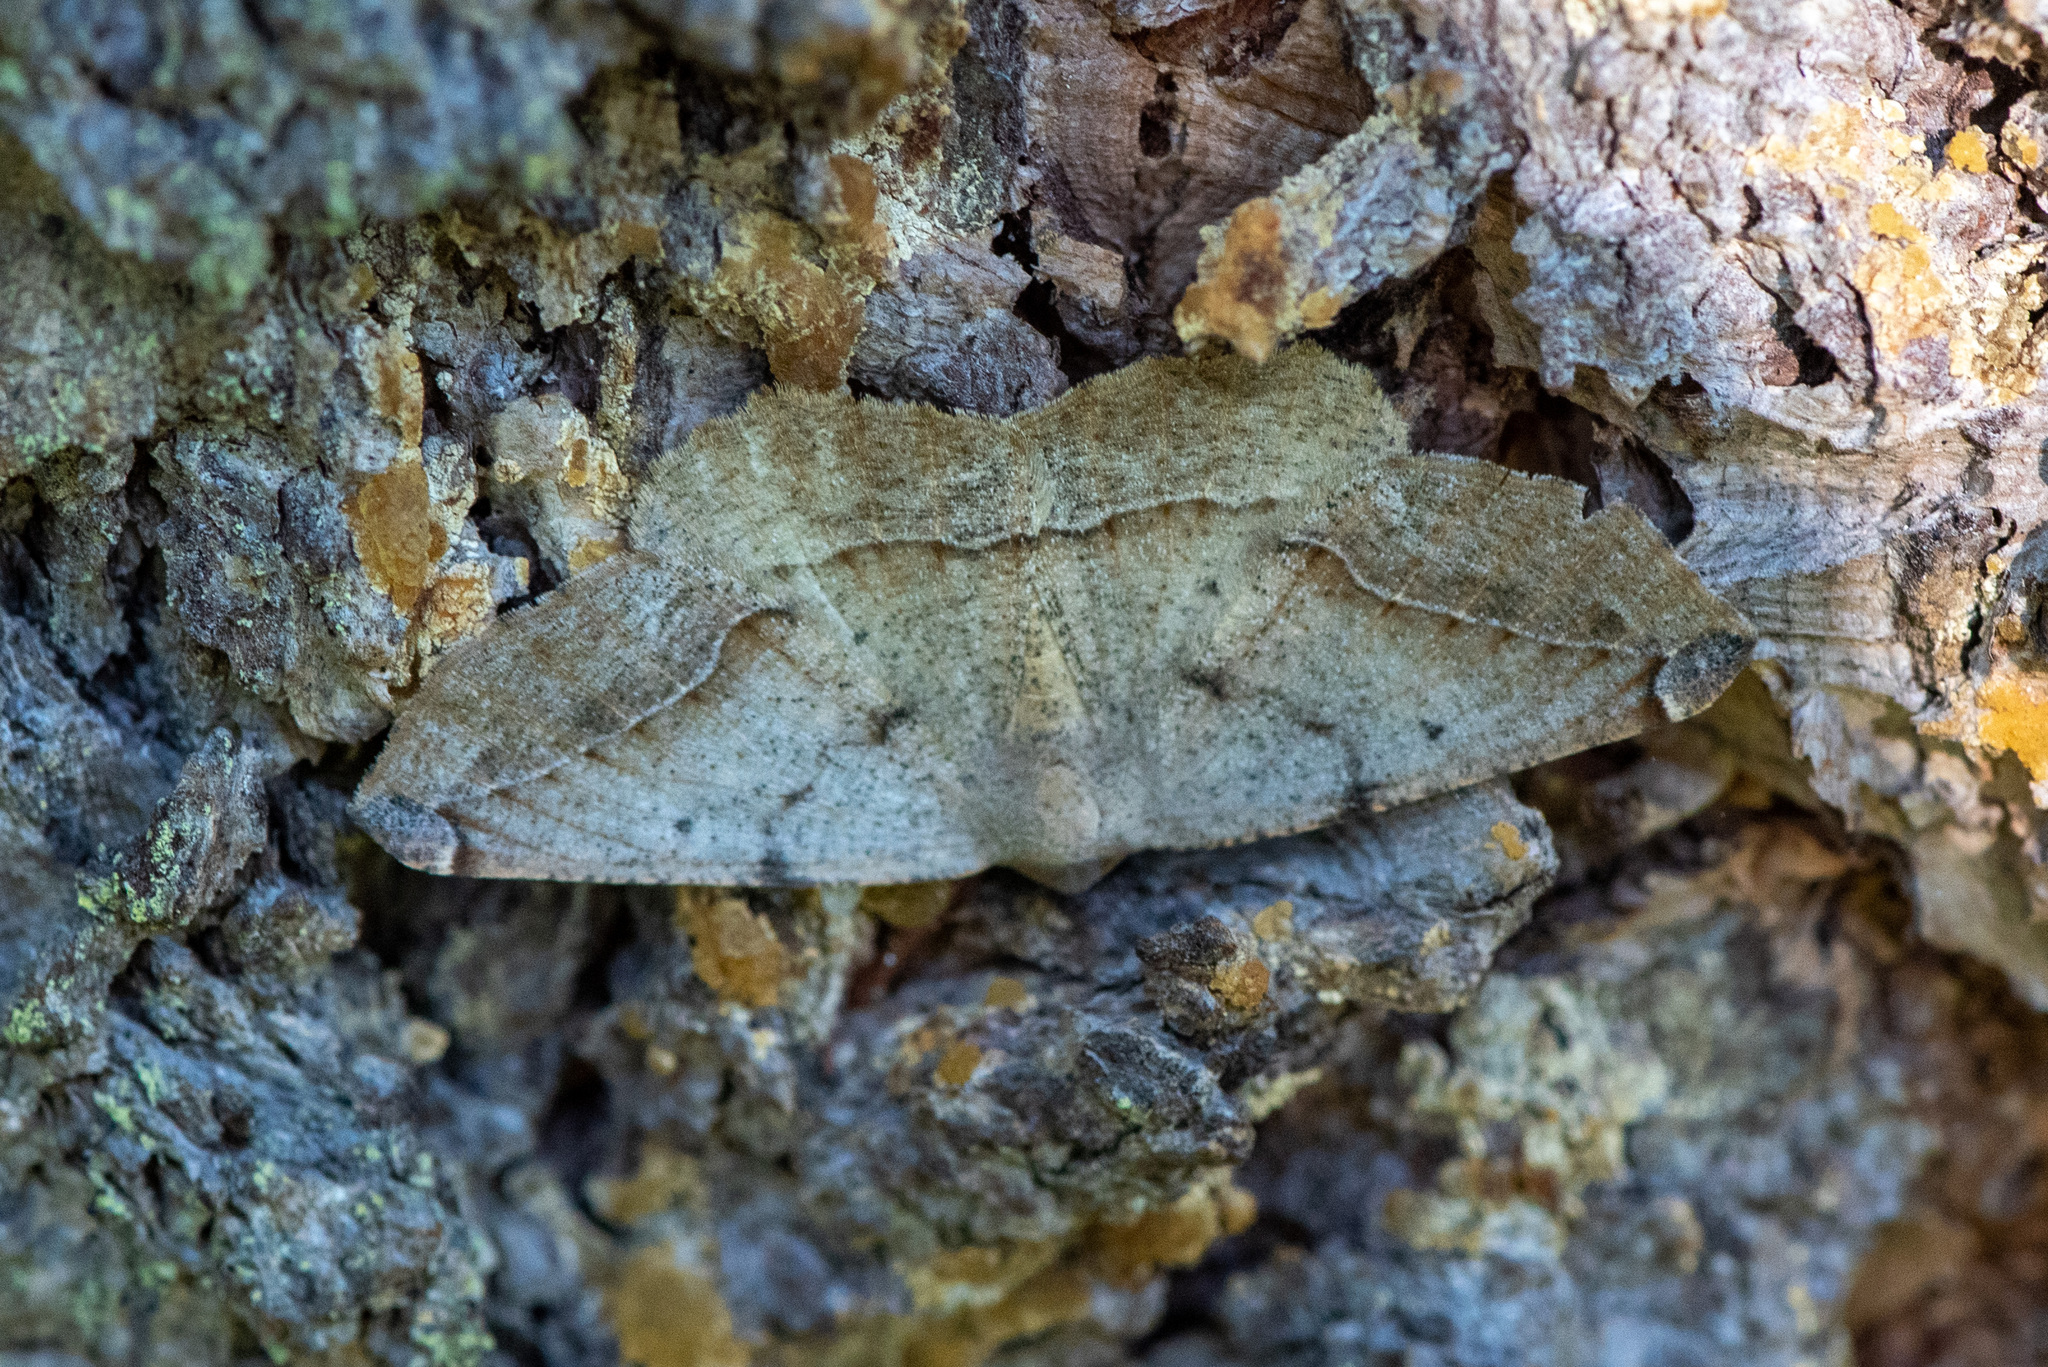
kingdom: Animalia
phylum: Arthropoda
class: Insecta
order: Lepidoptera
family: Geometridae
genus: Prochoerodes
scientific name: Prochoerodes forficaria
